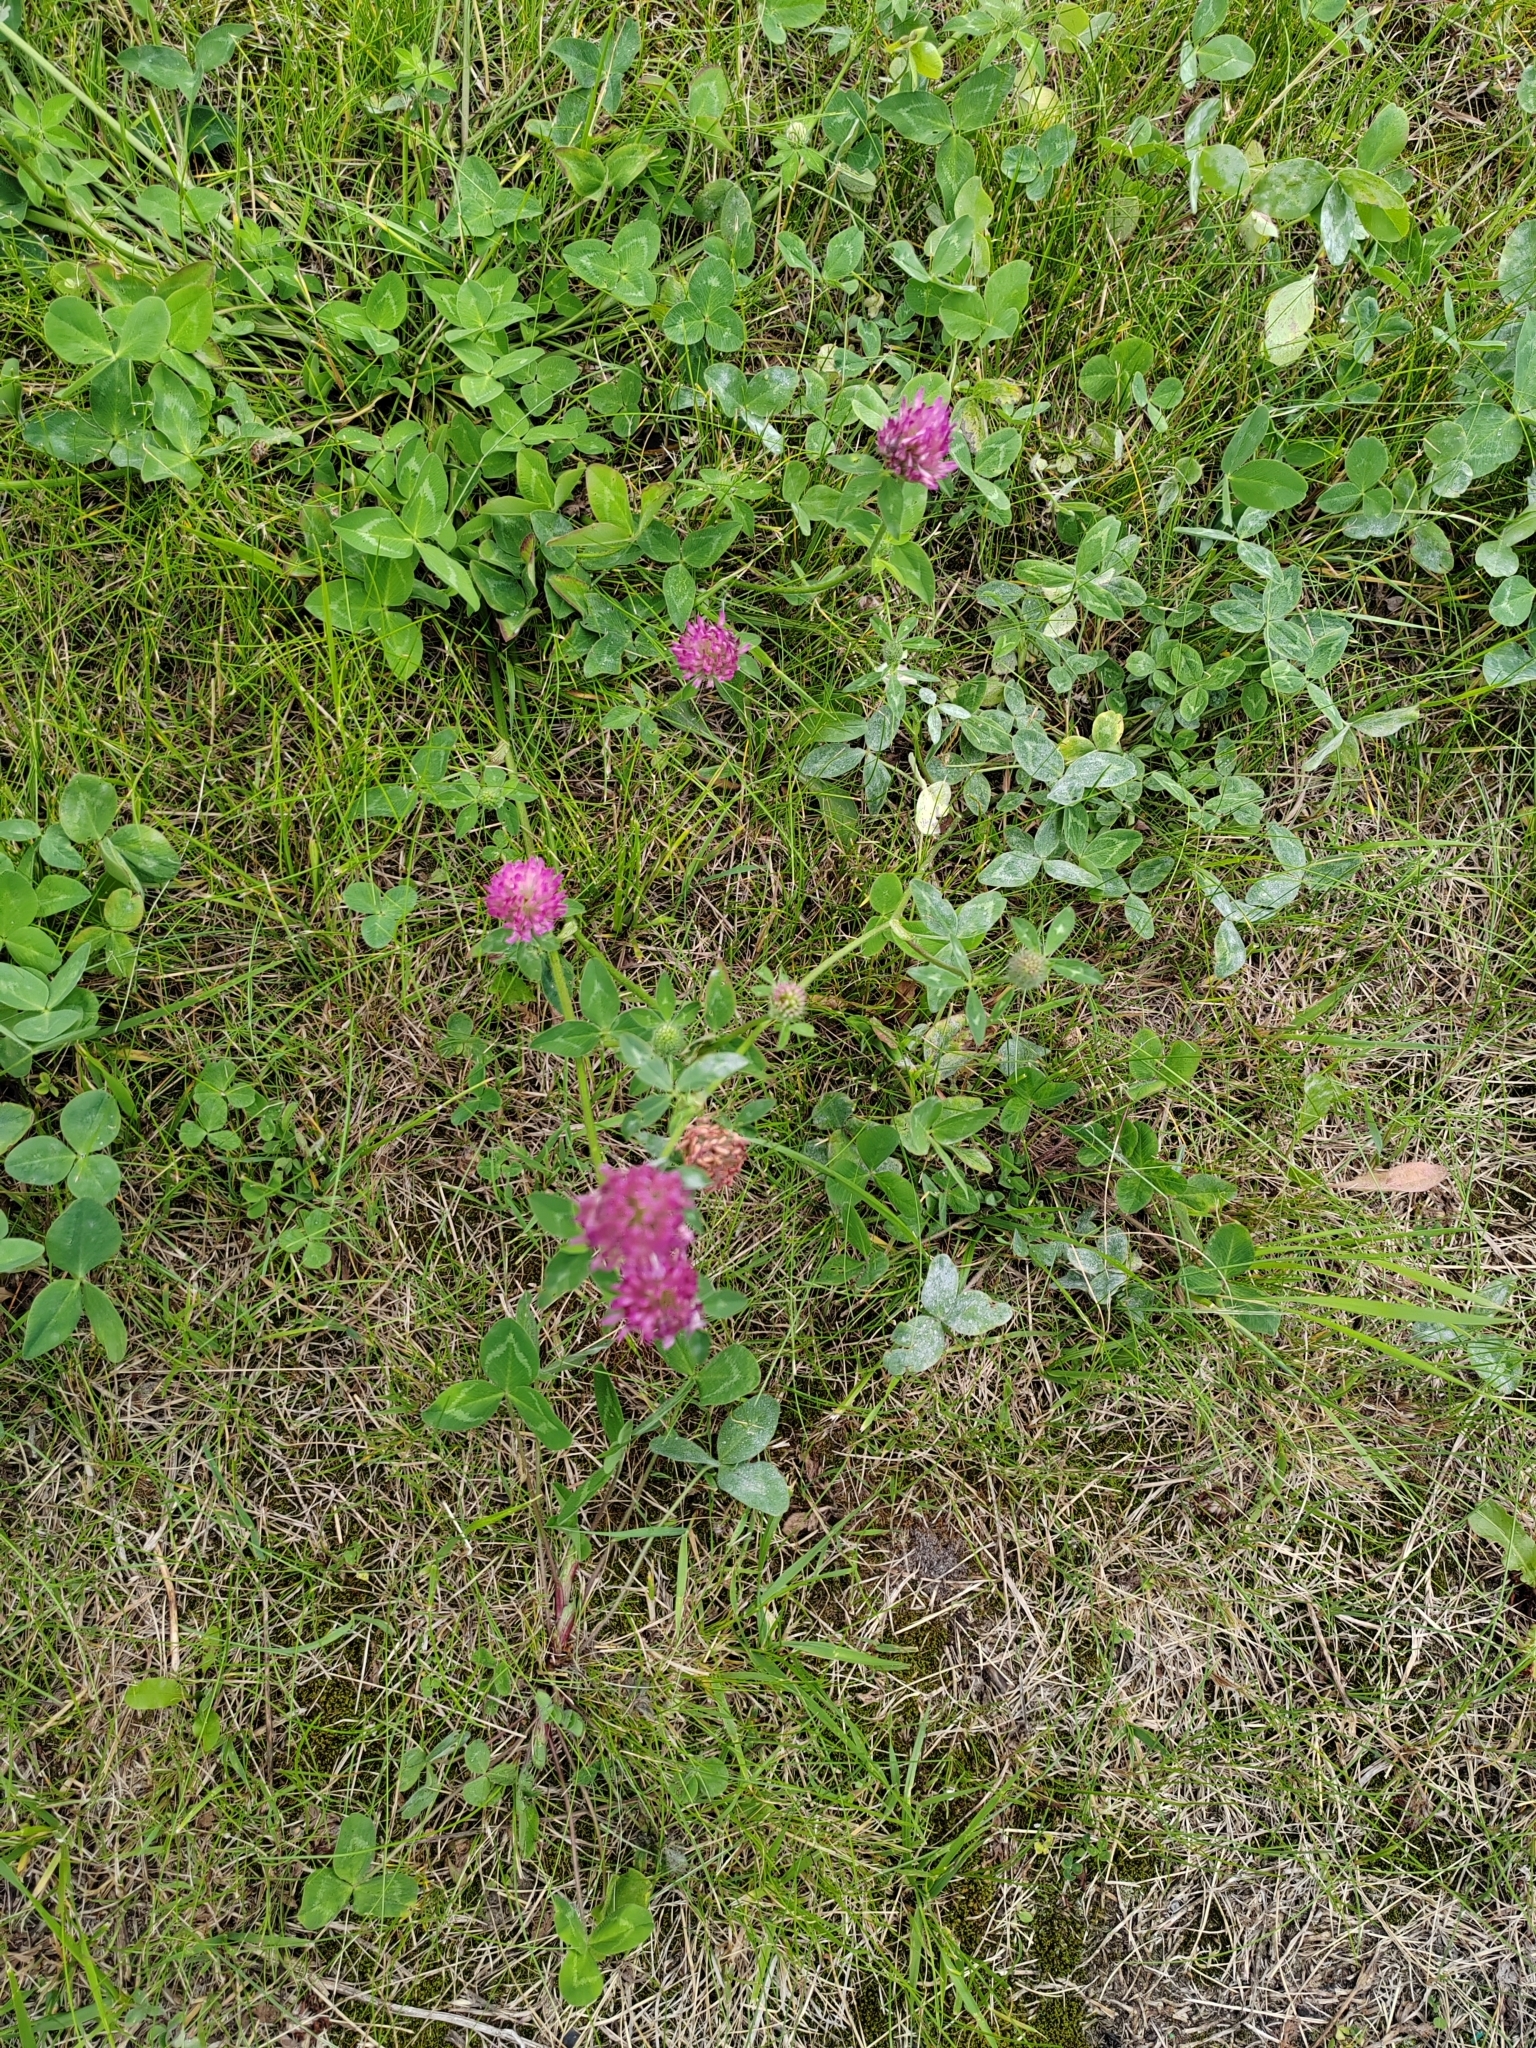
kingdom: Plantae
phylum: Tracheophyta
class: Magnoliopsida
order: Fabales
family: Fabaceae
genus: Trifolium
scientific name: Trifolium pratense
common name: Red clover
